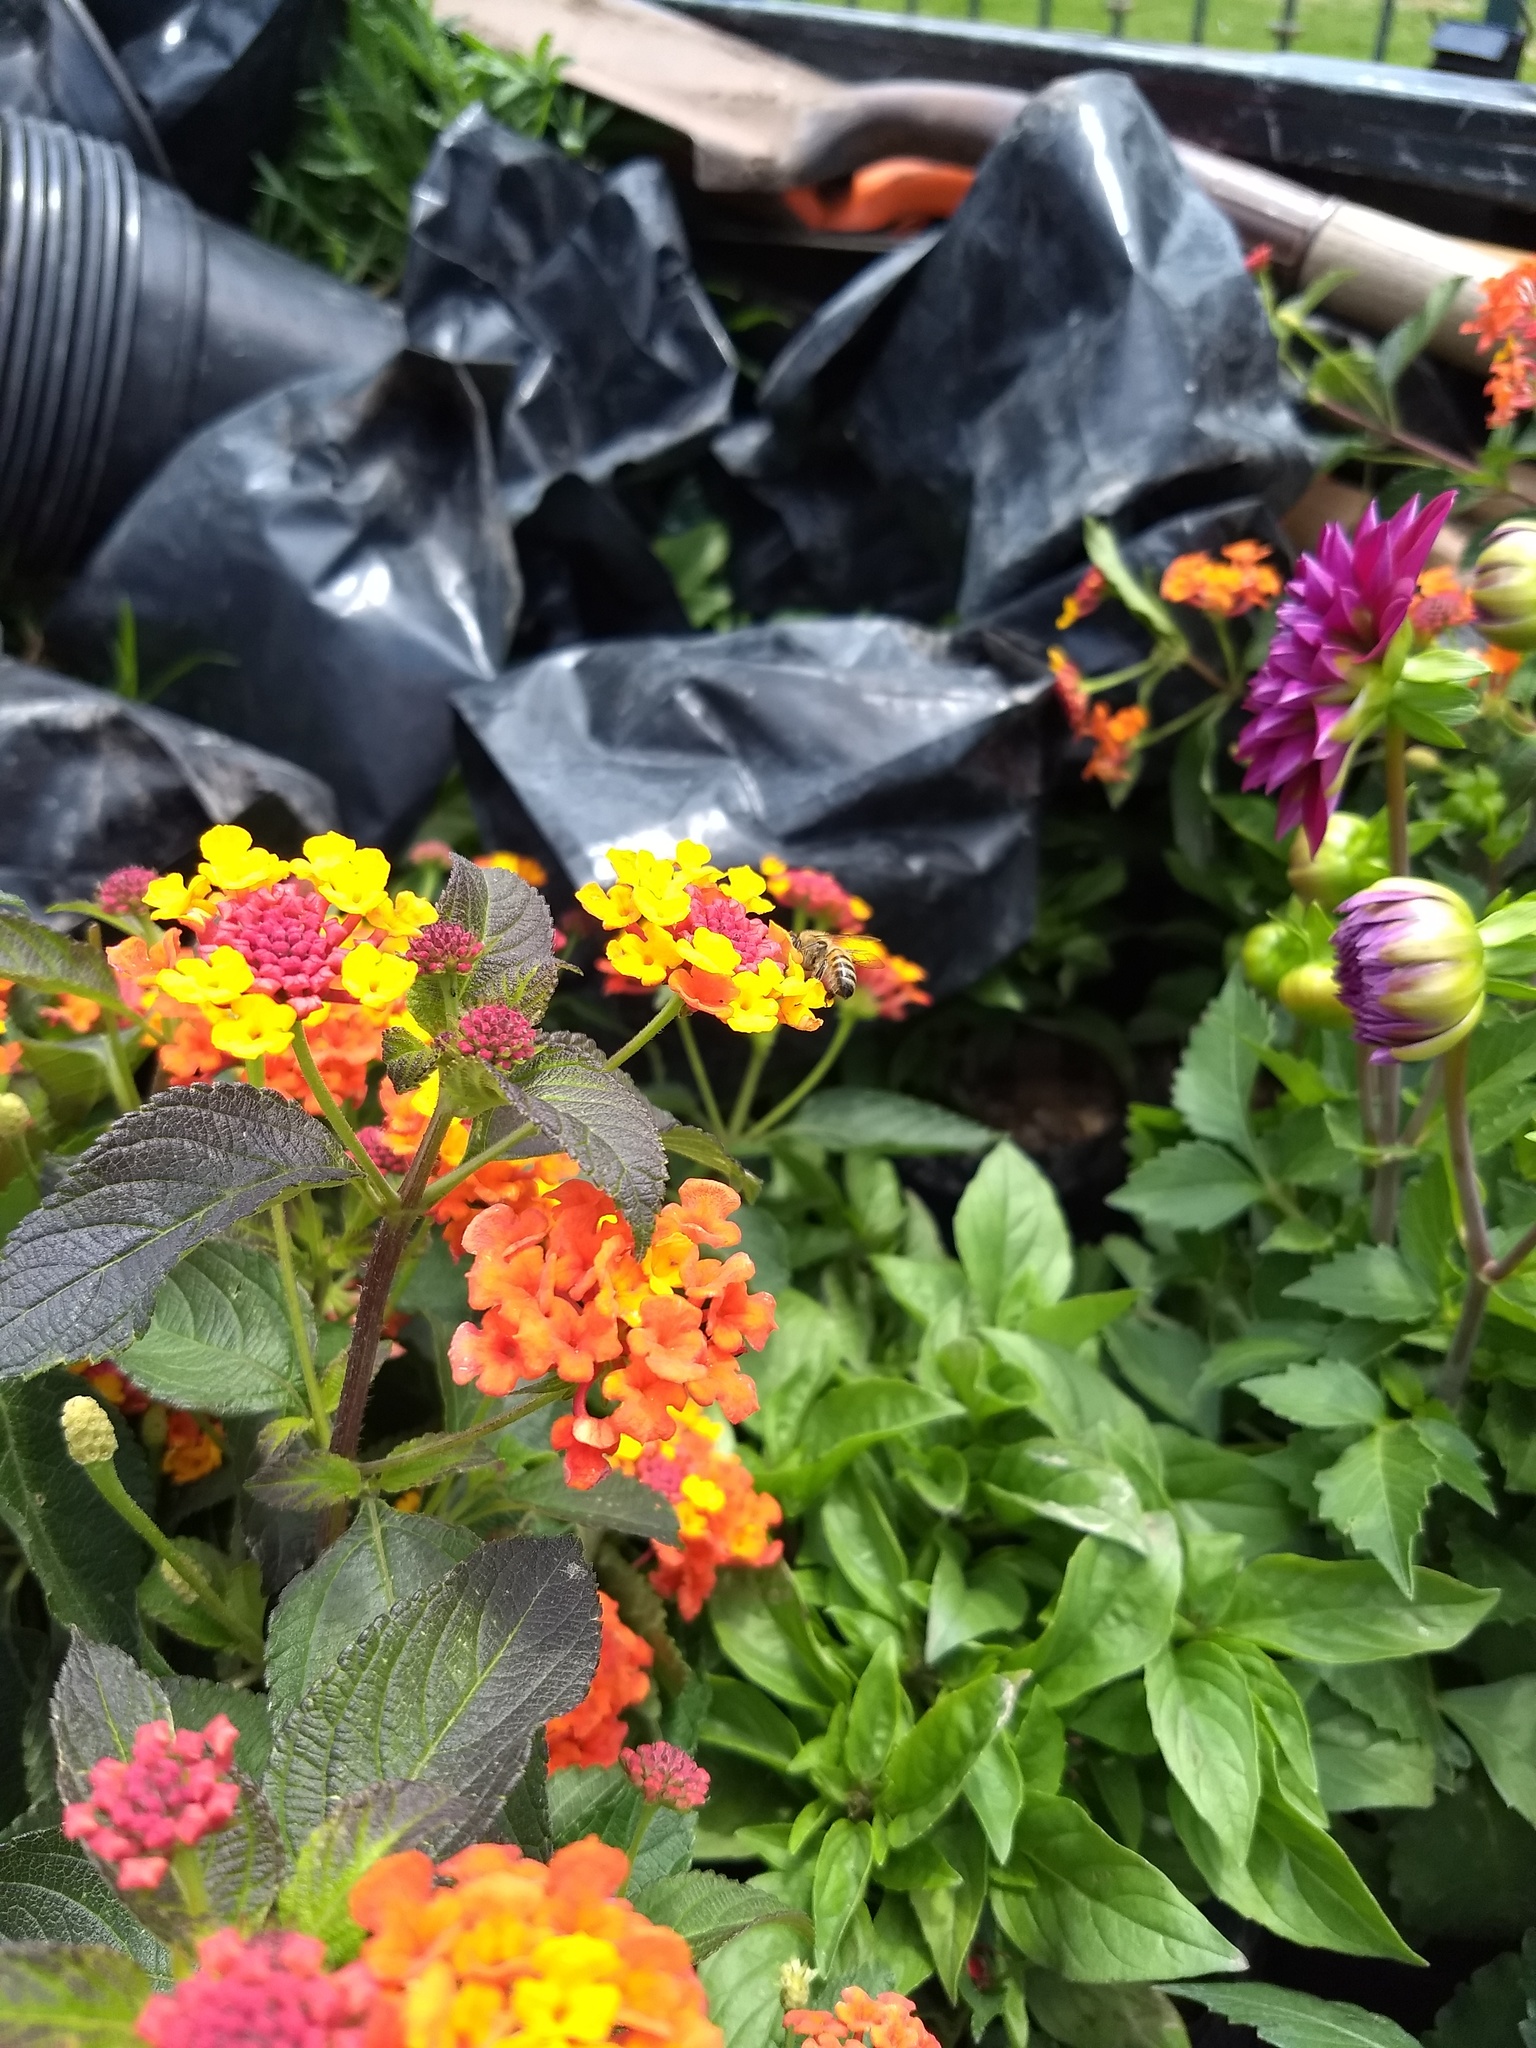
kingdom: Animalia
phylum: Arthropoda
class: Insecta
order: Hymenoptera
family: Apidae
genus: Apis
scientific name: Apis mellifera
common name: Honey bee
